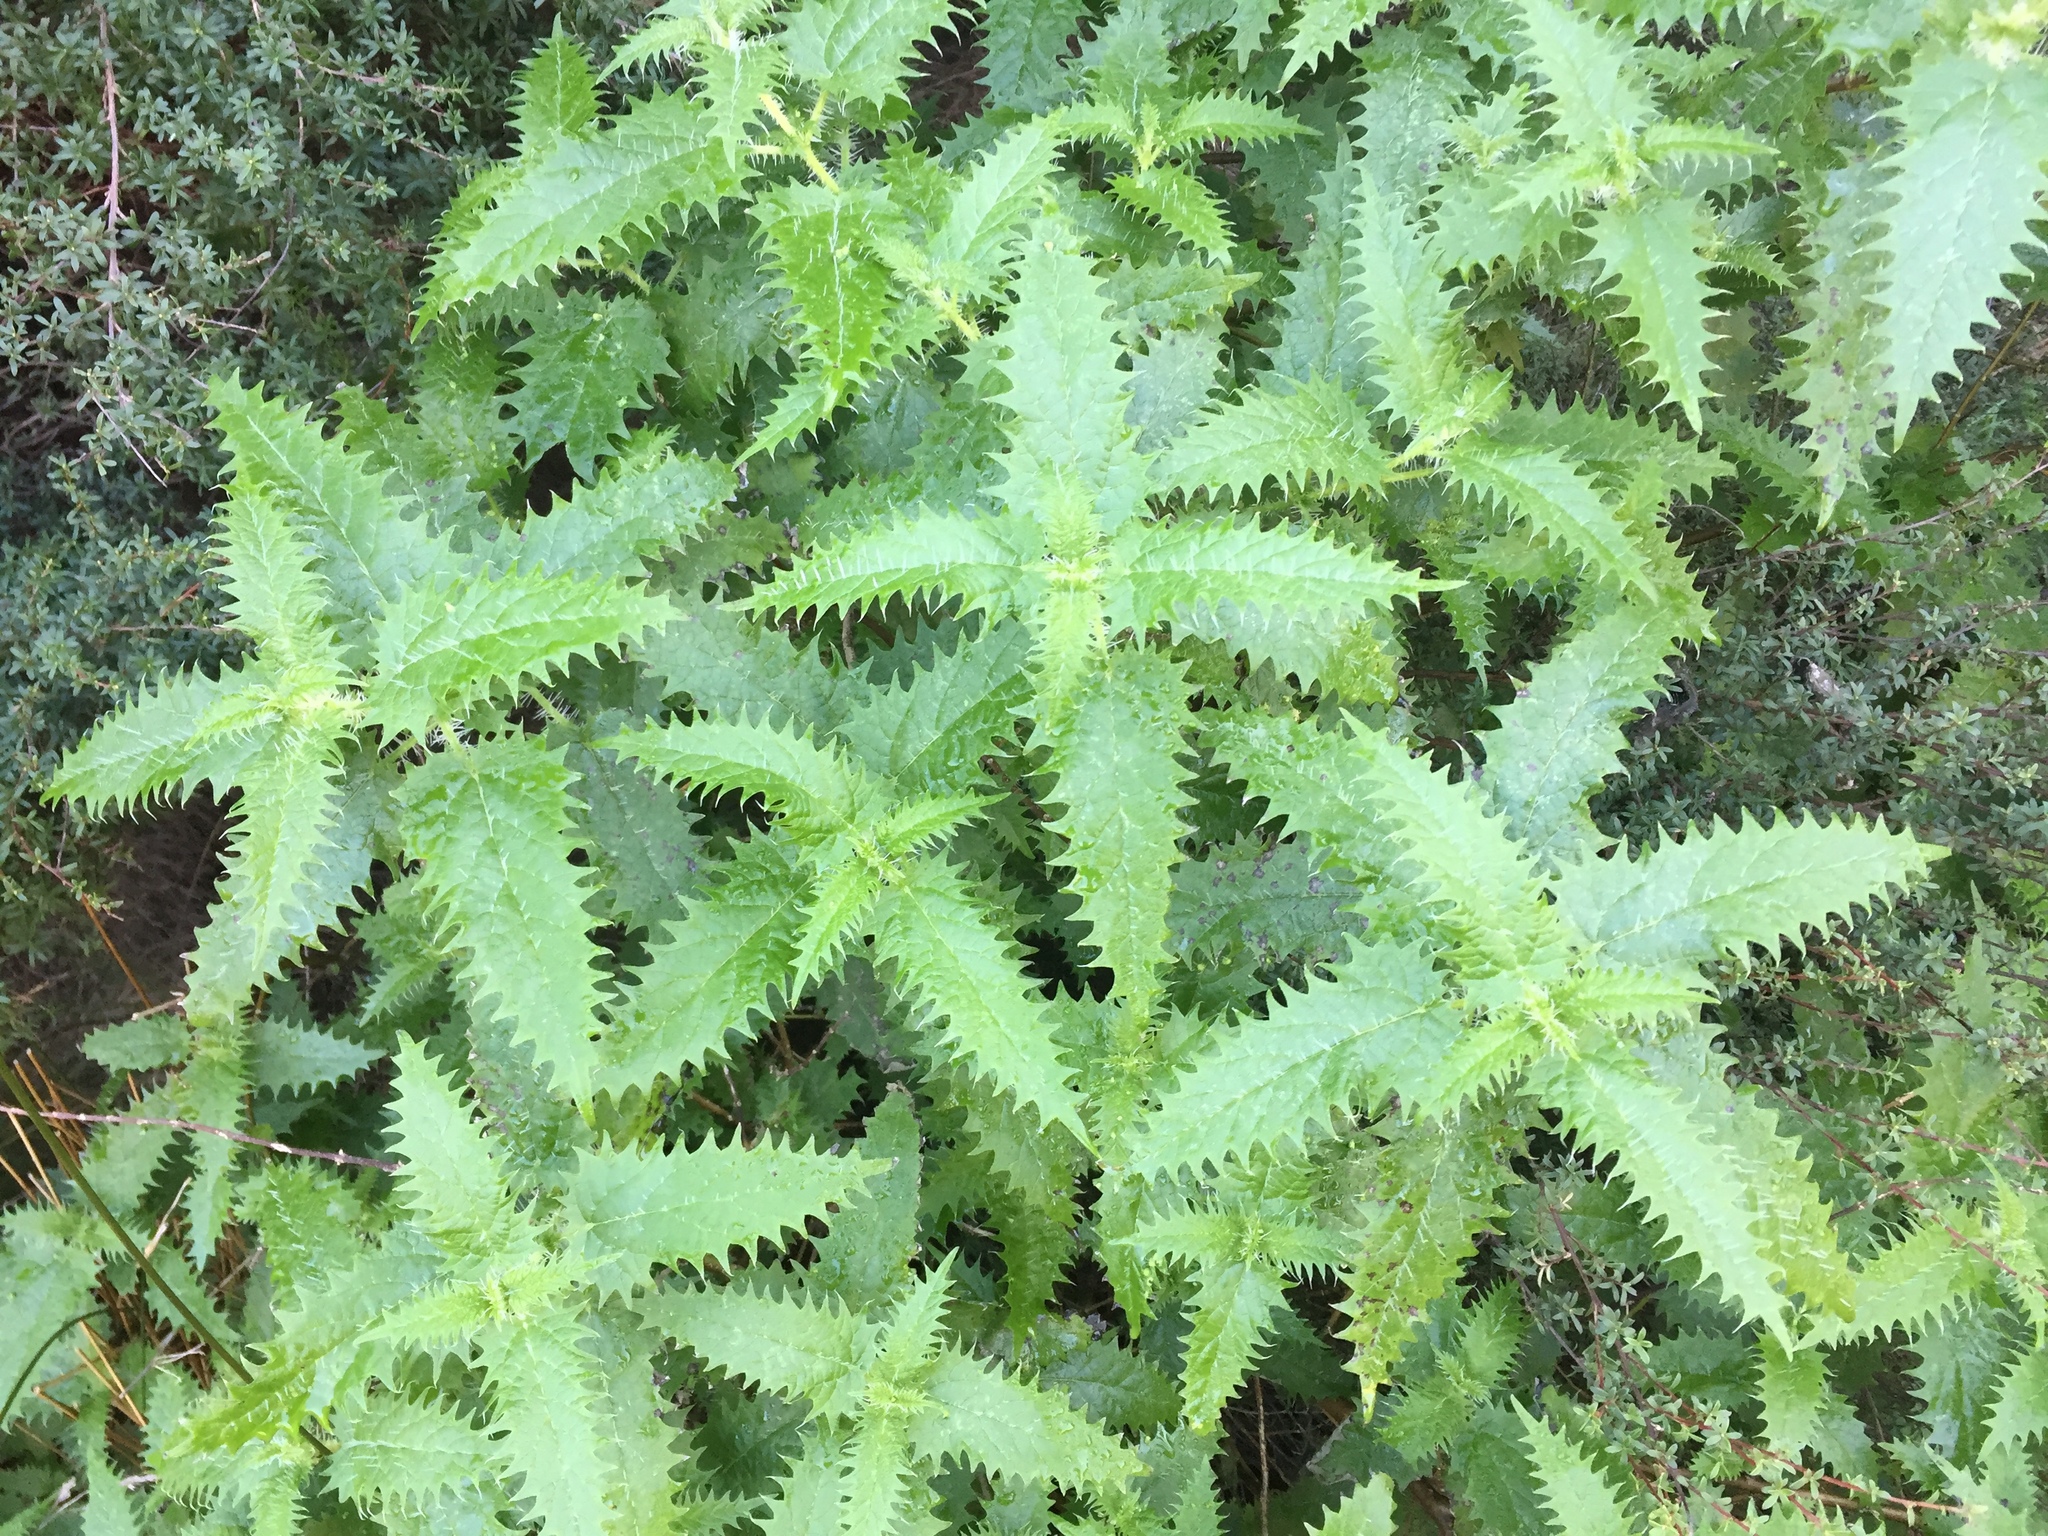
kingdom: Plantae
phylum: Tracheophyta
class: Magnoliopsida
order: Rosales
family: Urticaceae
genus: Urtica
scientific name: Urtica ferox
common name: Tree nettle
